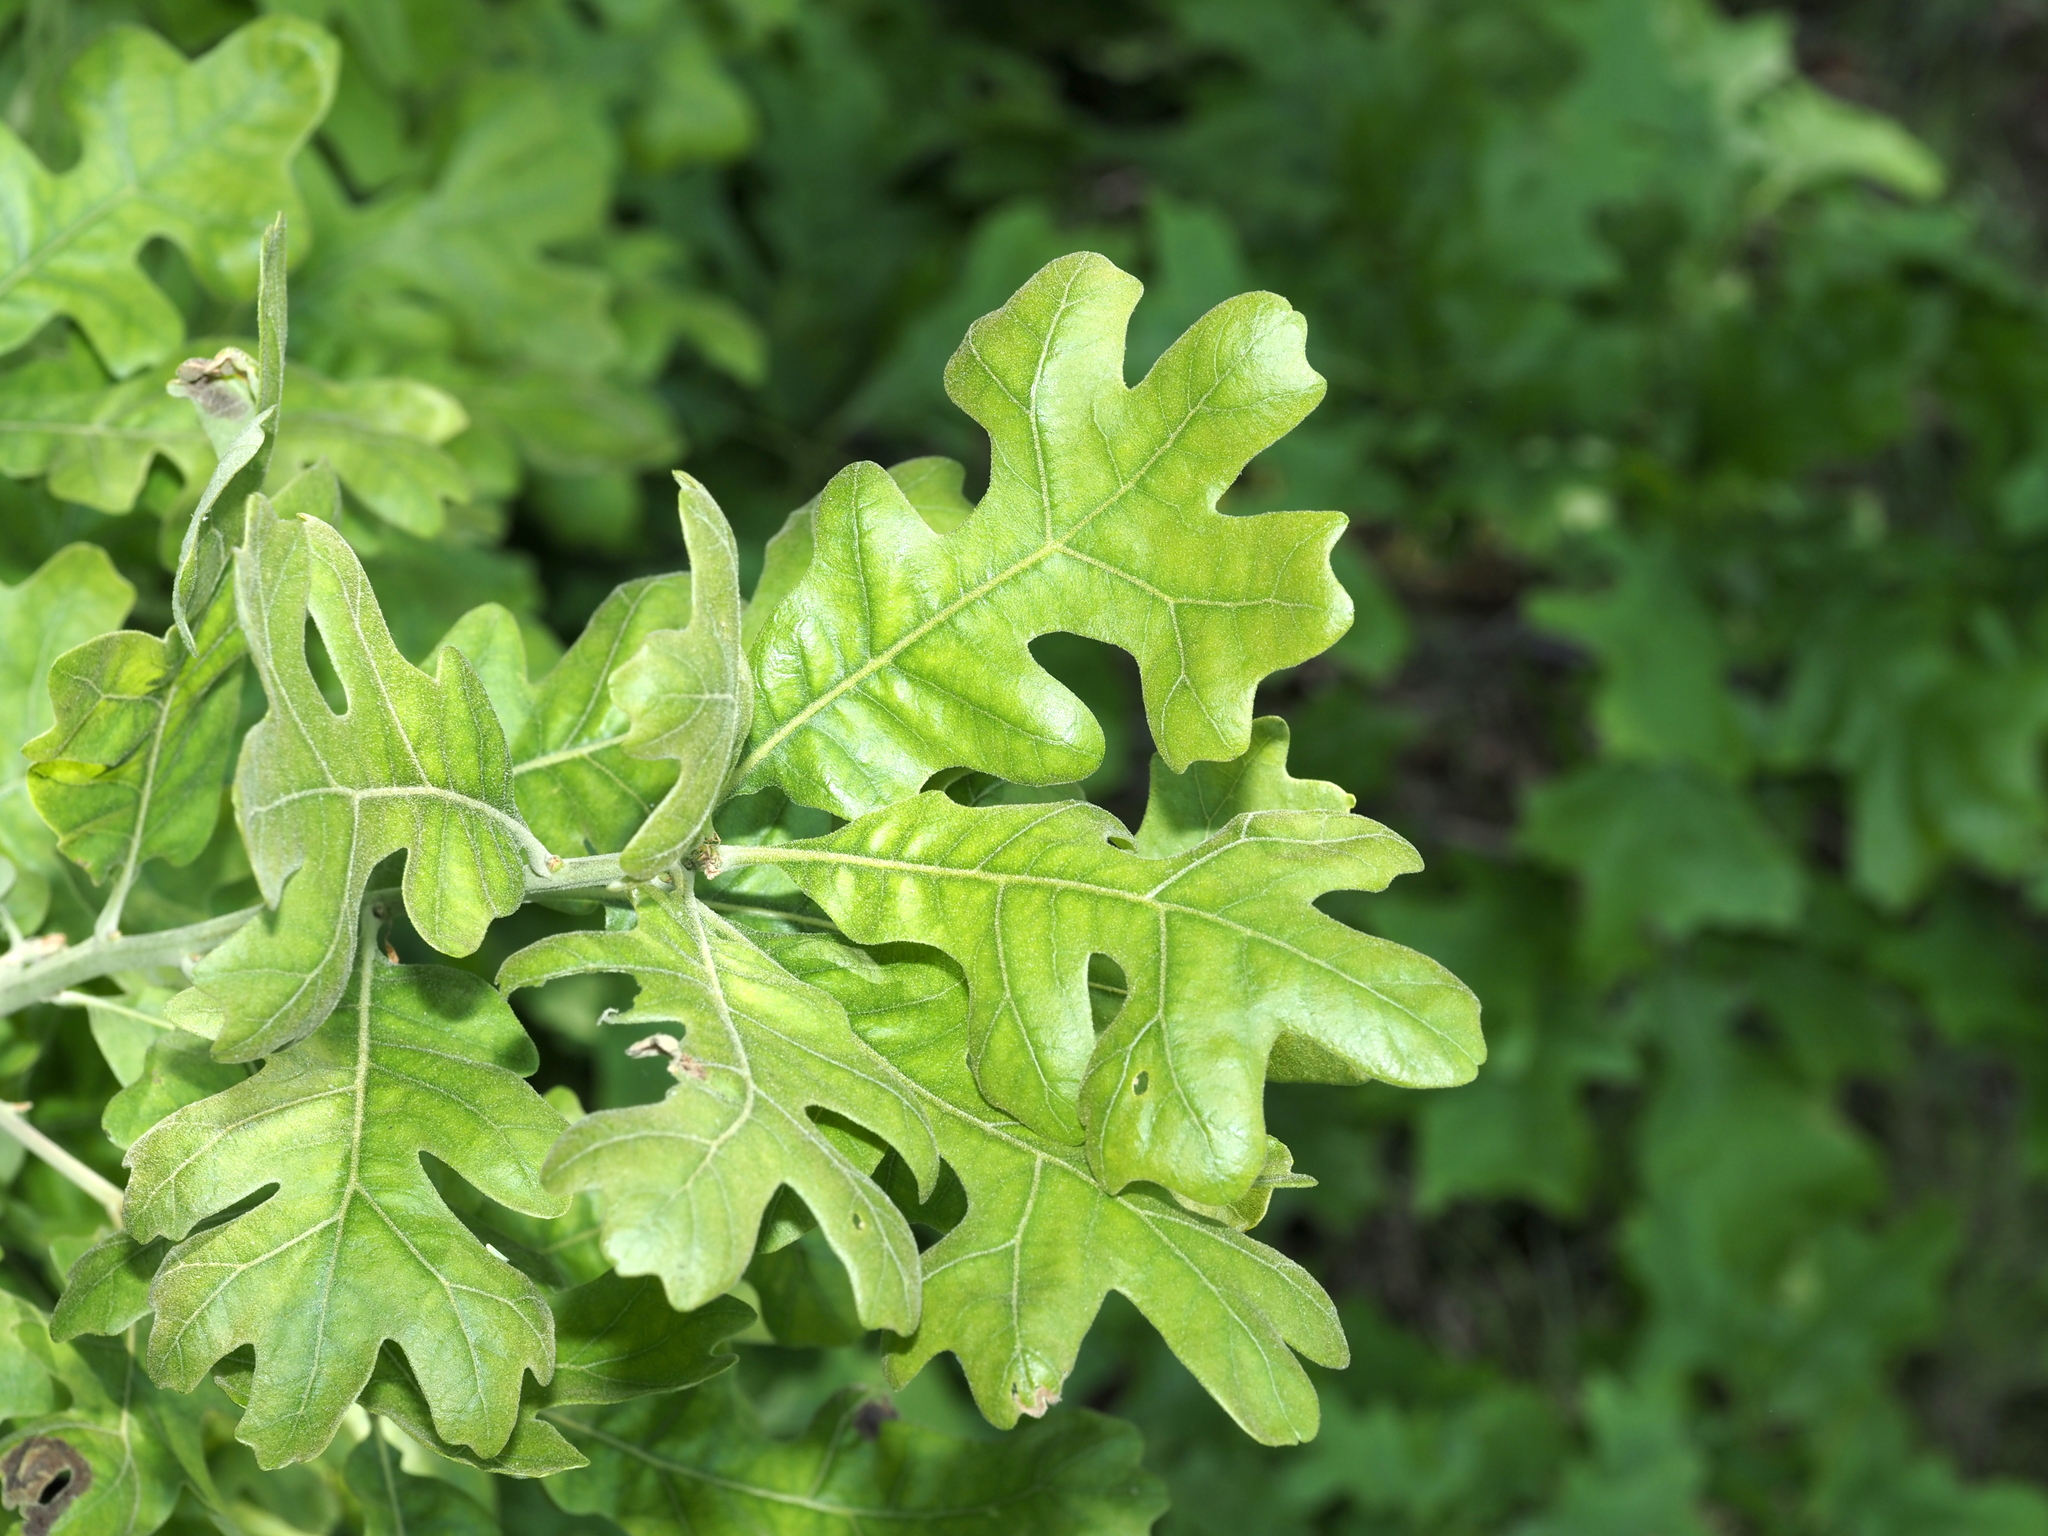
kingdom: Plantae
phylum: Tracheophyta
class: Magnoliopsida
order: Fagales
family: Fagaceae
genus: Quercus
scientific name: Quercus stellata
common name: Post oak
